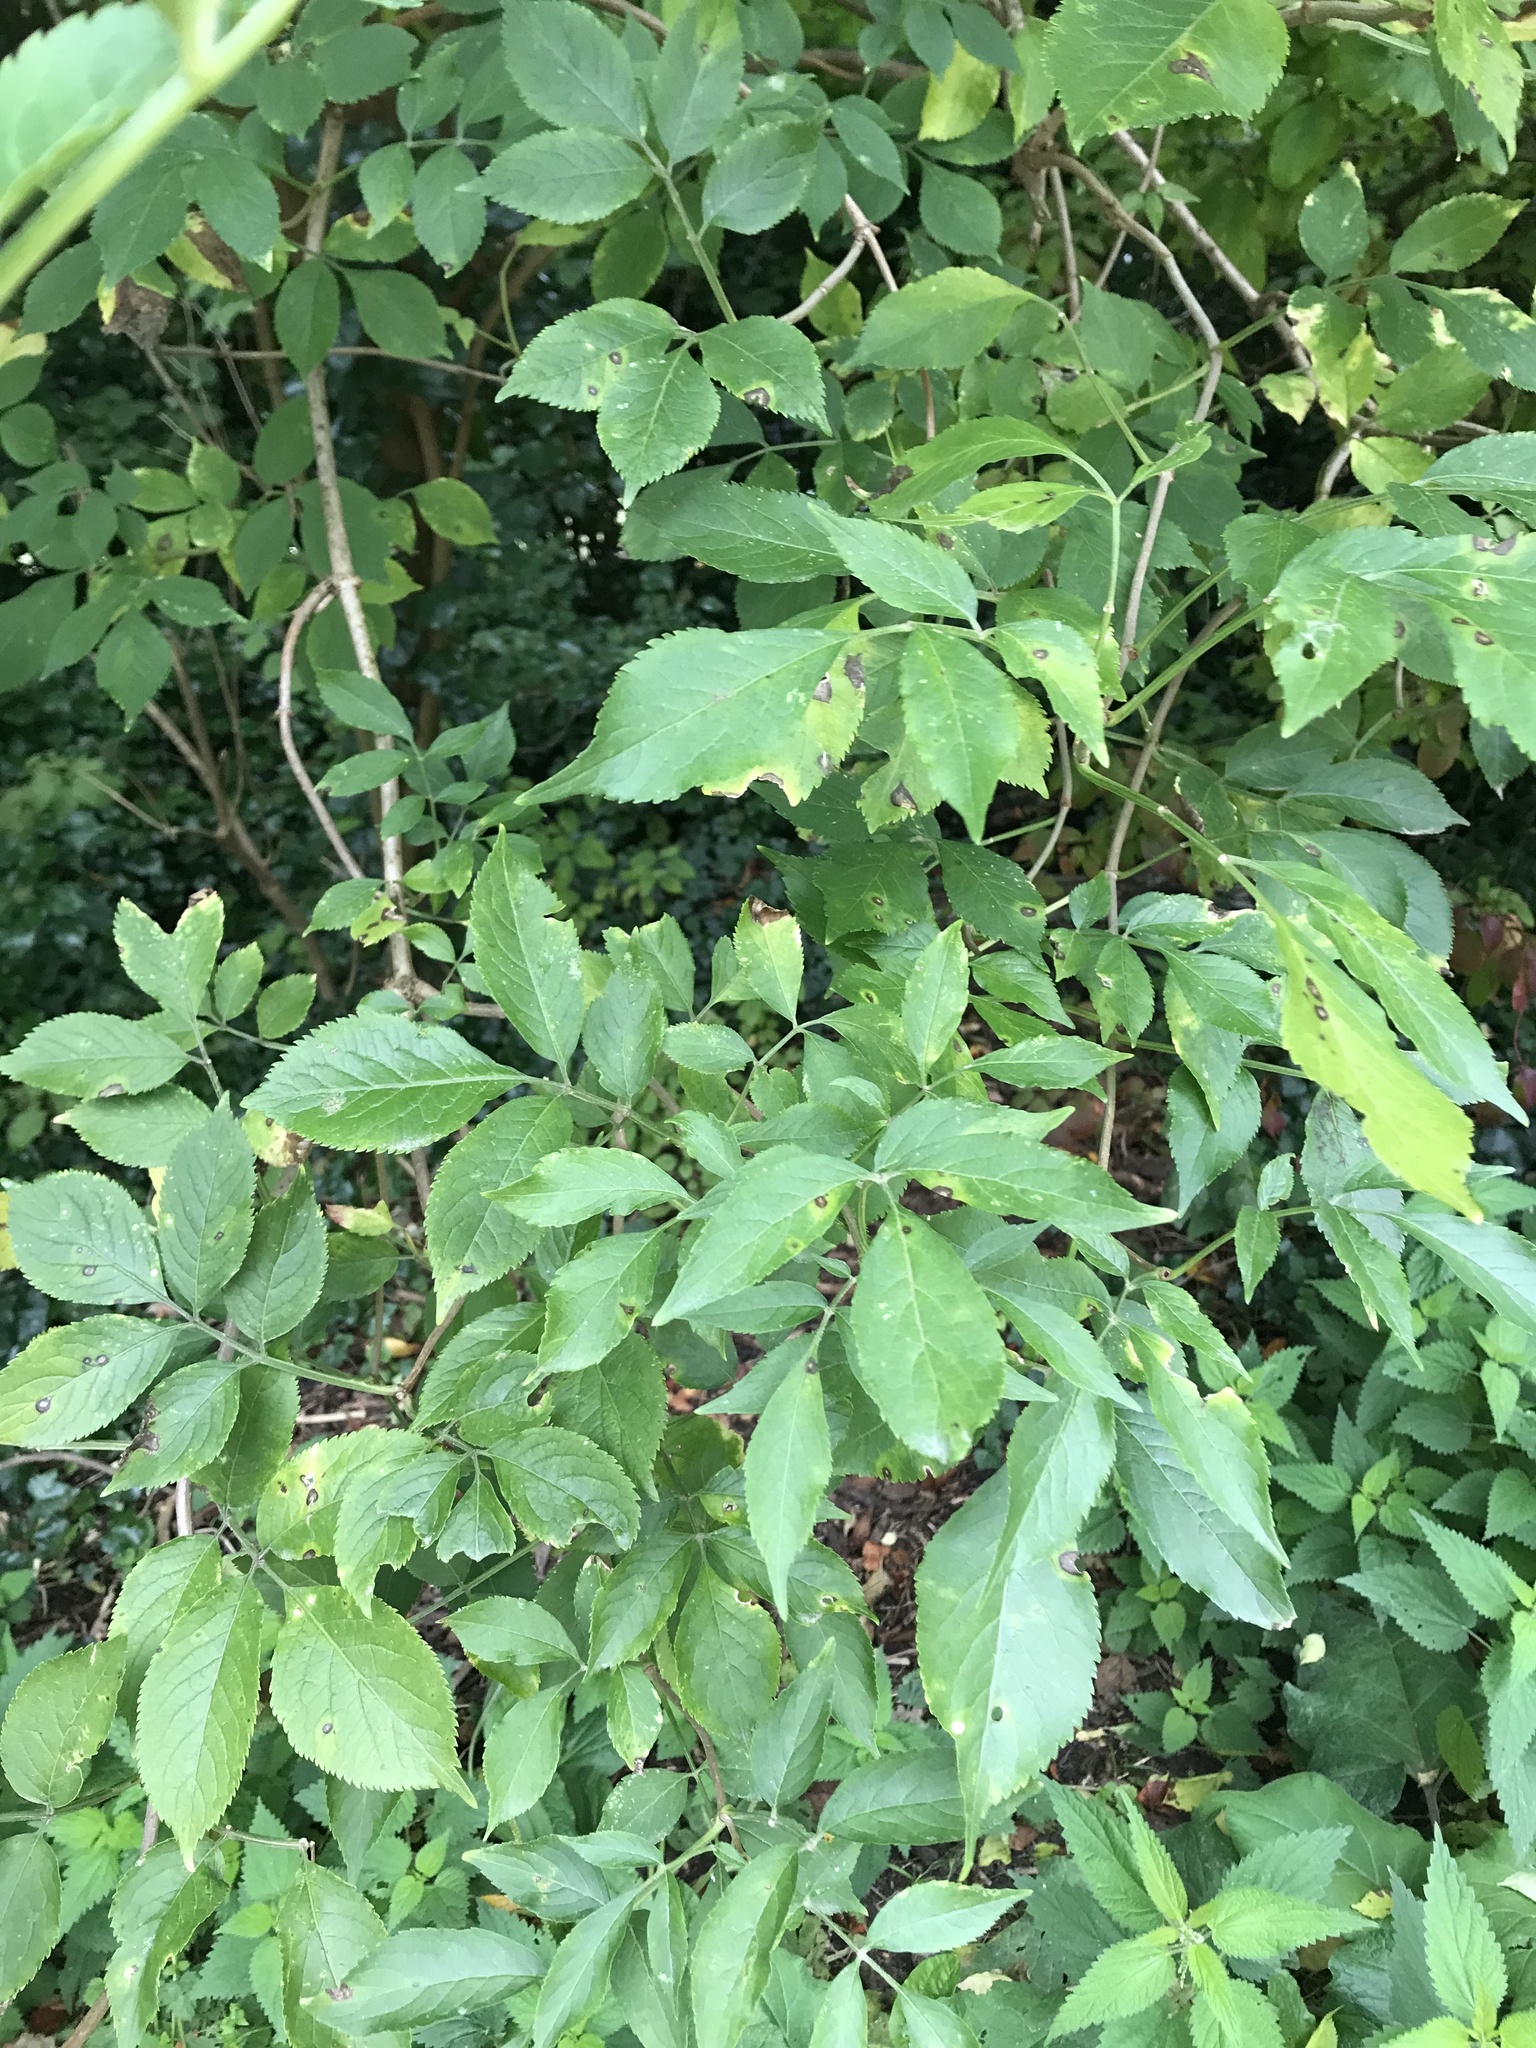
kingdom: Plantae
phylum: Tracheophyta
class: Magnoliopsida
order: Dipsacales
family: Viburnaceae
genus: Sambucus
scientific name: Sambucus nigra
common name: Elder
